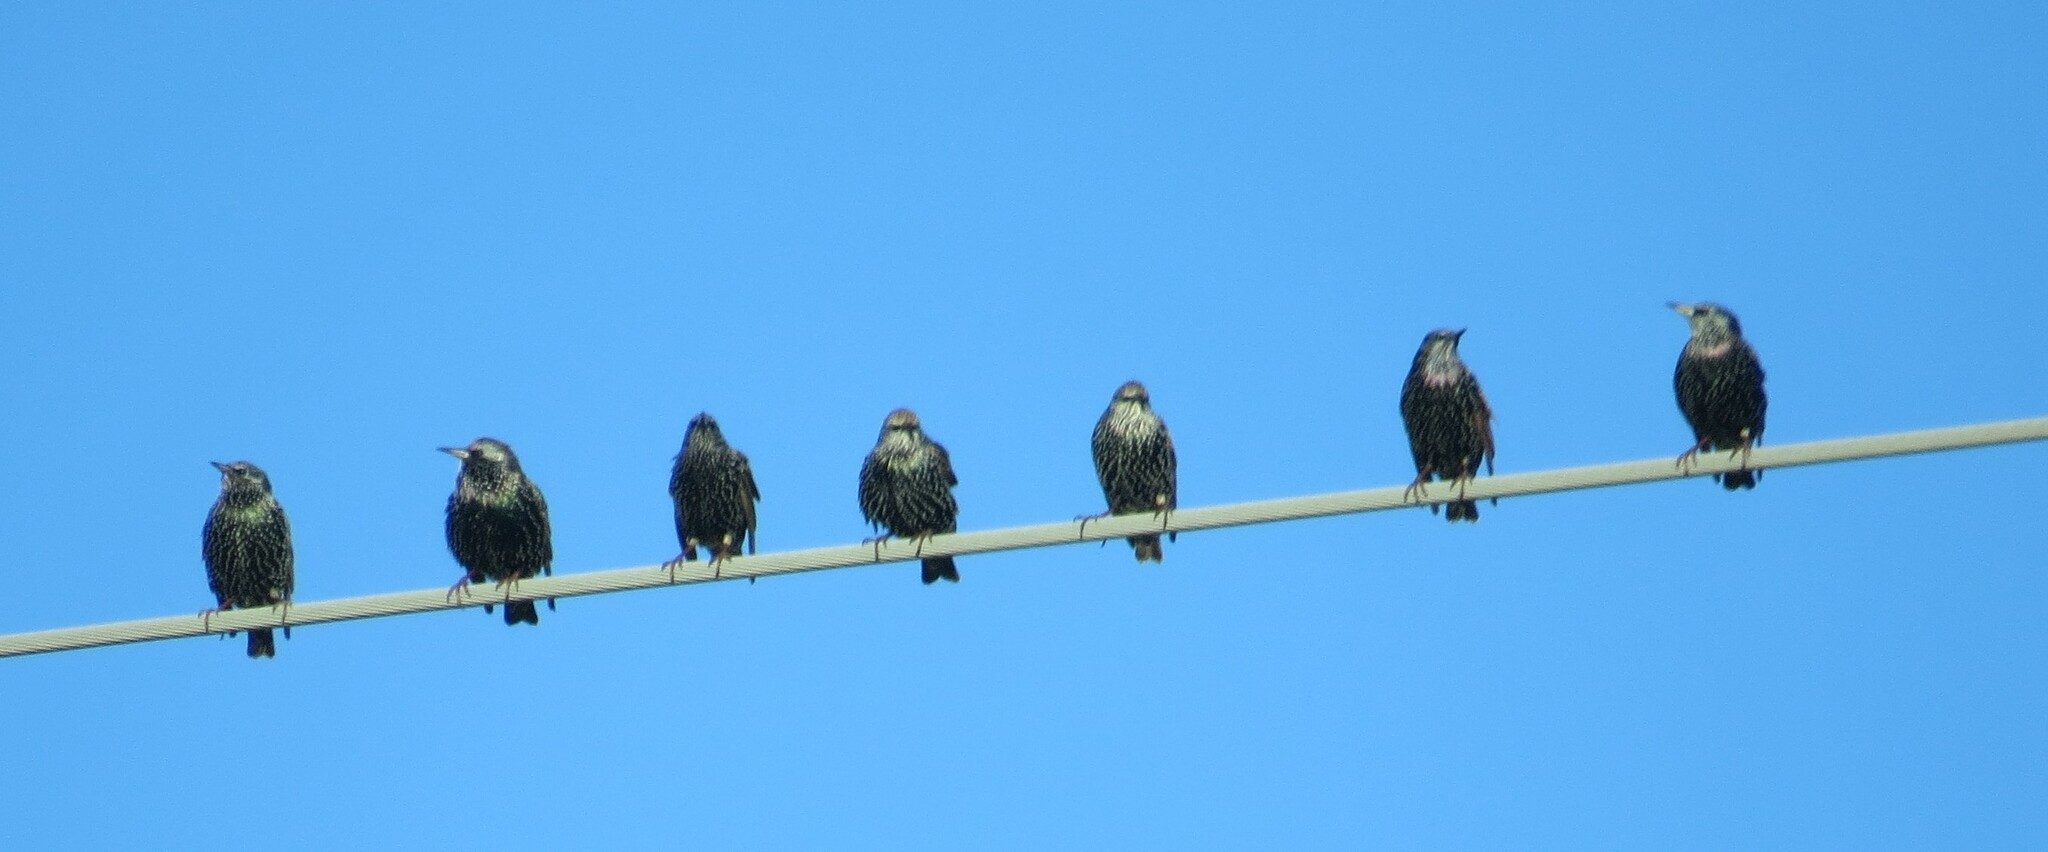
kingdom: Animalia
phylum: Chordata
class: Aves
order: Passeriformes
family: Sturnidae
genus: Sturnus
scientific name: Sturnus vulgaris
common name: Common starling
